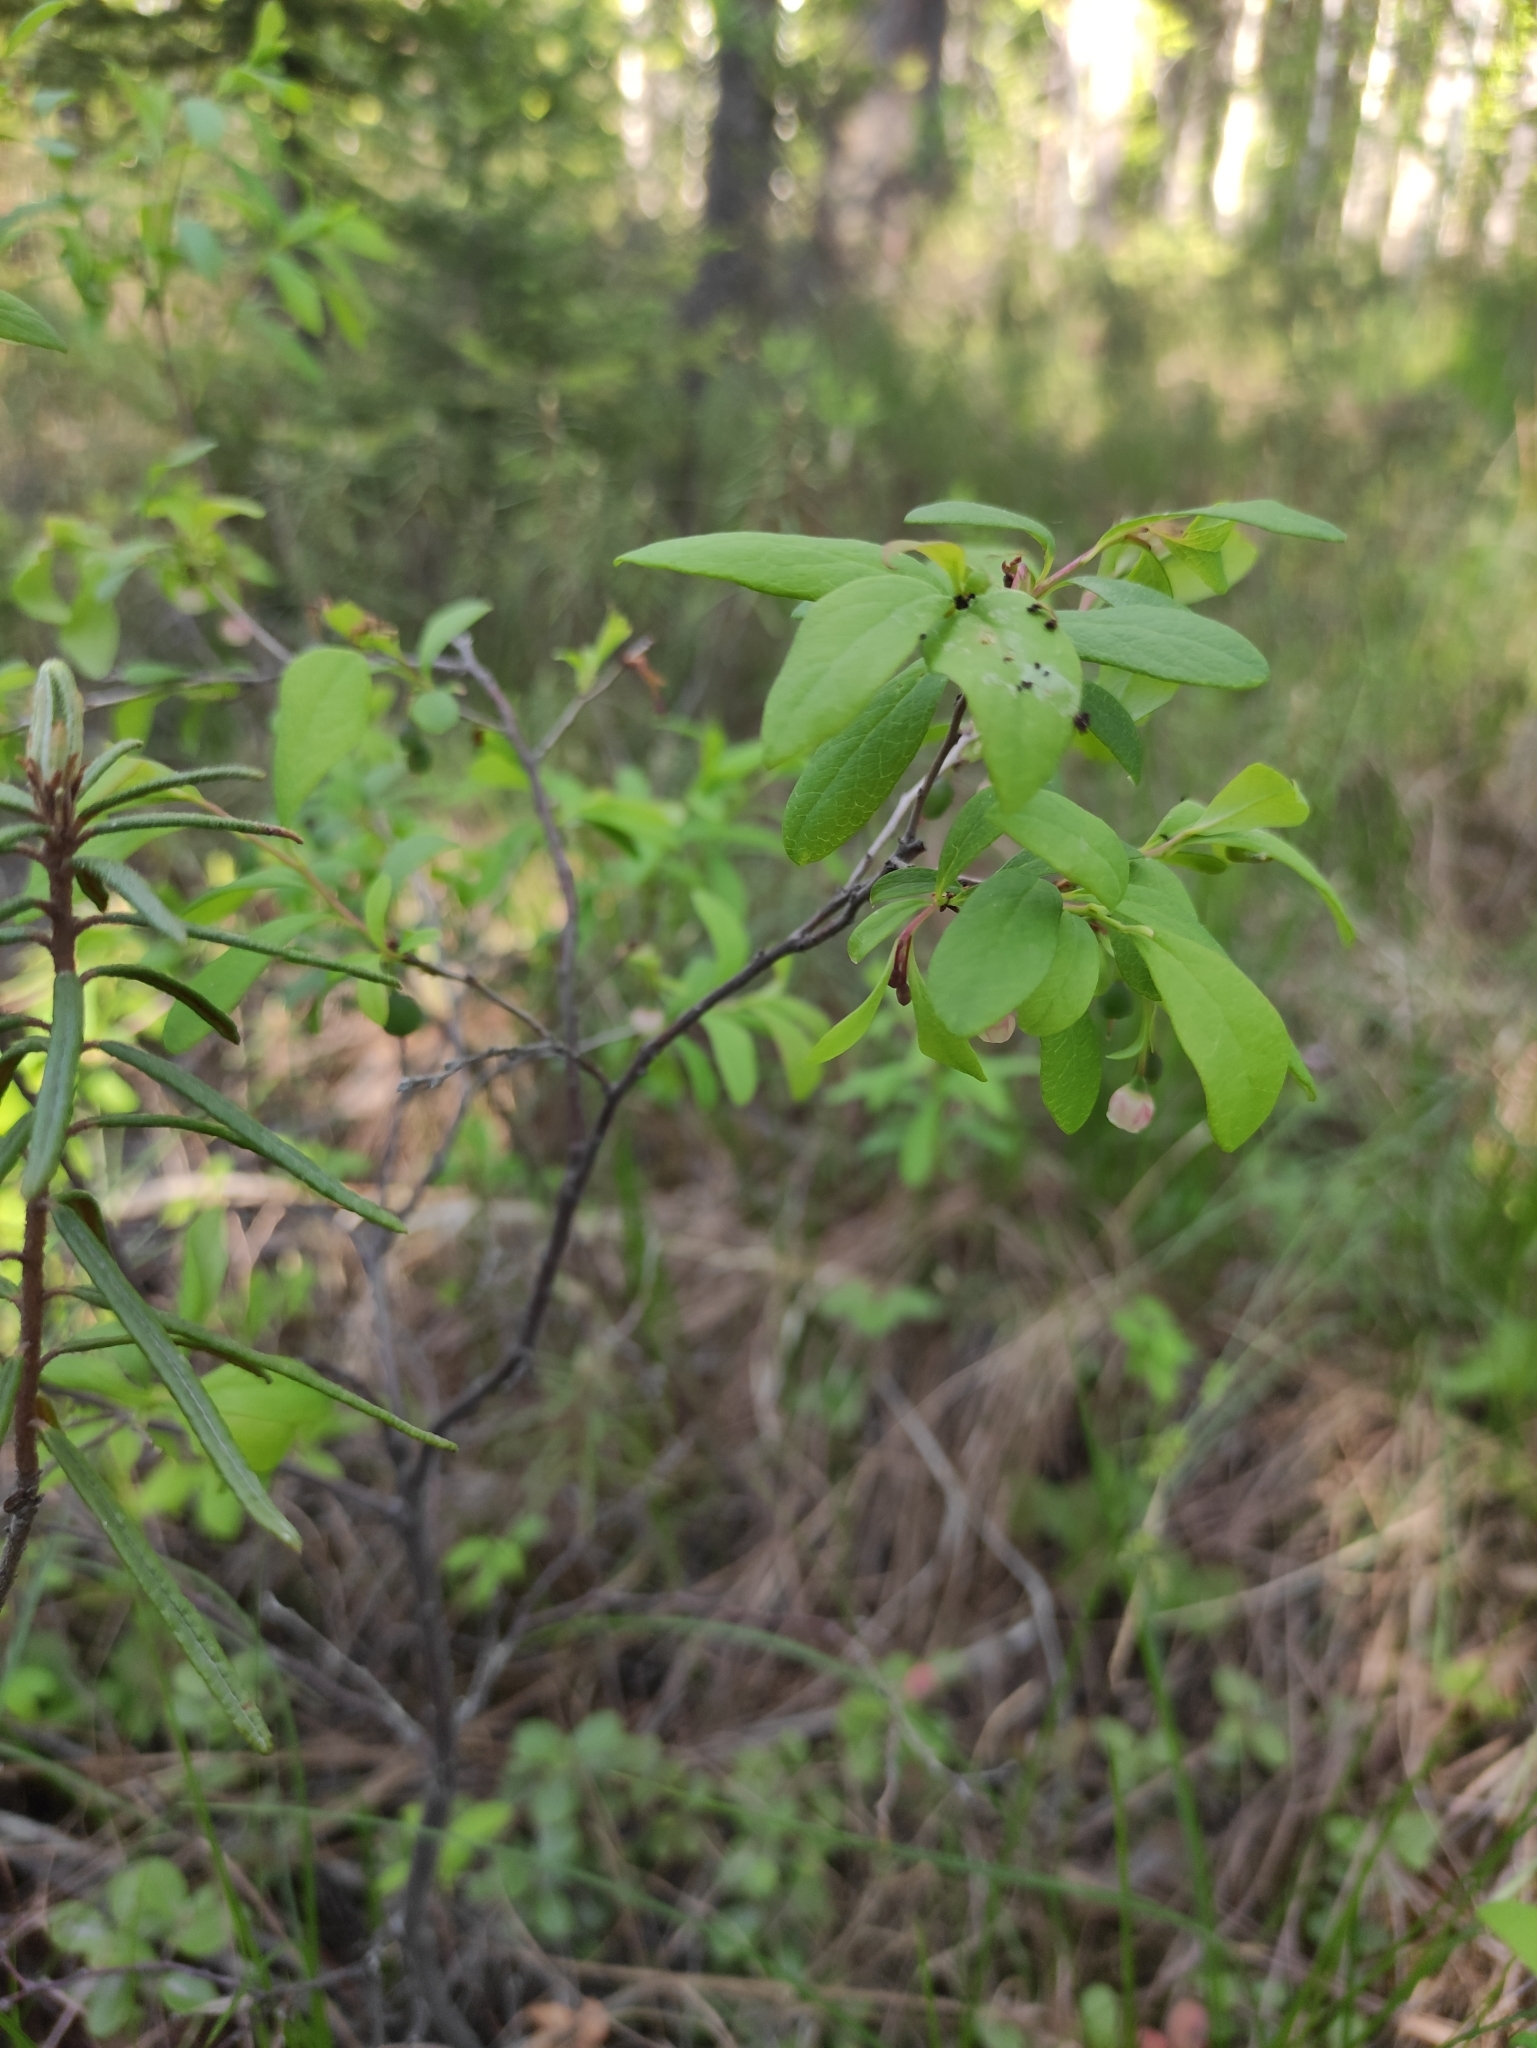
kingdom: Plantae
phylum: Tracheophyta
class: Magnoliopsida
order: Ericales
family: Ericaceae
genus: Vaccinium
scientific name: Vaccinium uliginosum
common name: Bog bilberry
